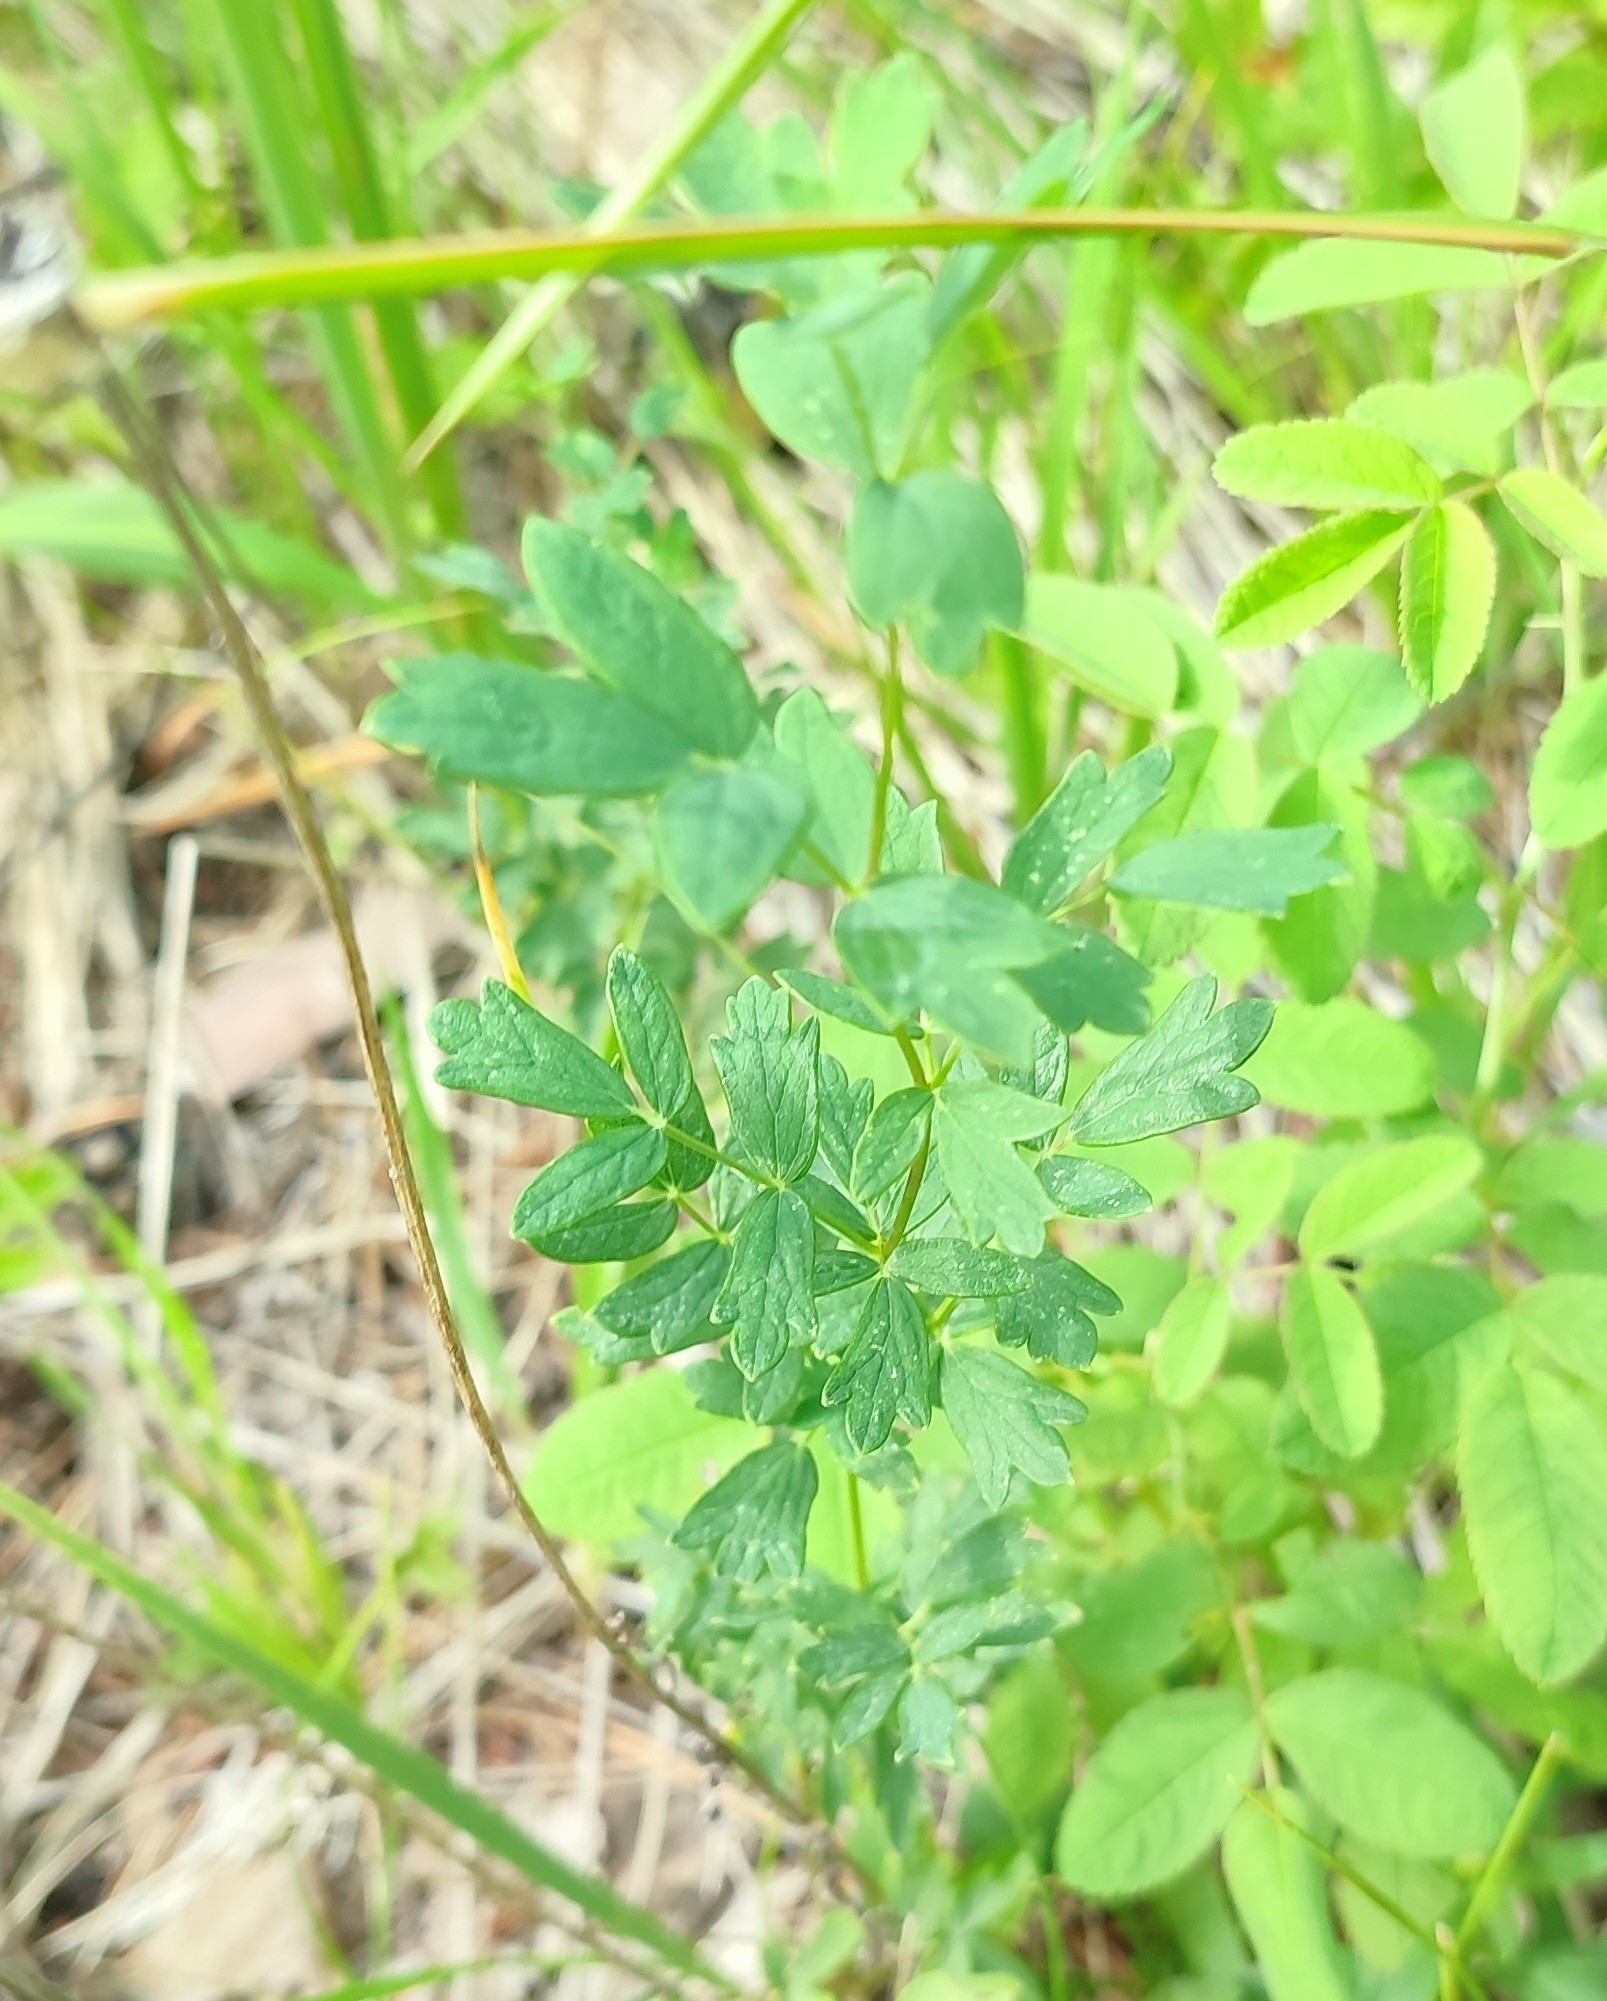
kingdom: Plantae
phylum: Tracheophyta
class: Magnoliopsida
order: Ranunculales
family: Ranunculaceae
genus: Thalictrum
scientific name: Thalictrum simplex
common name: Small meadow-rue
